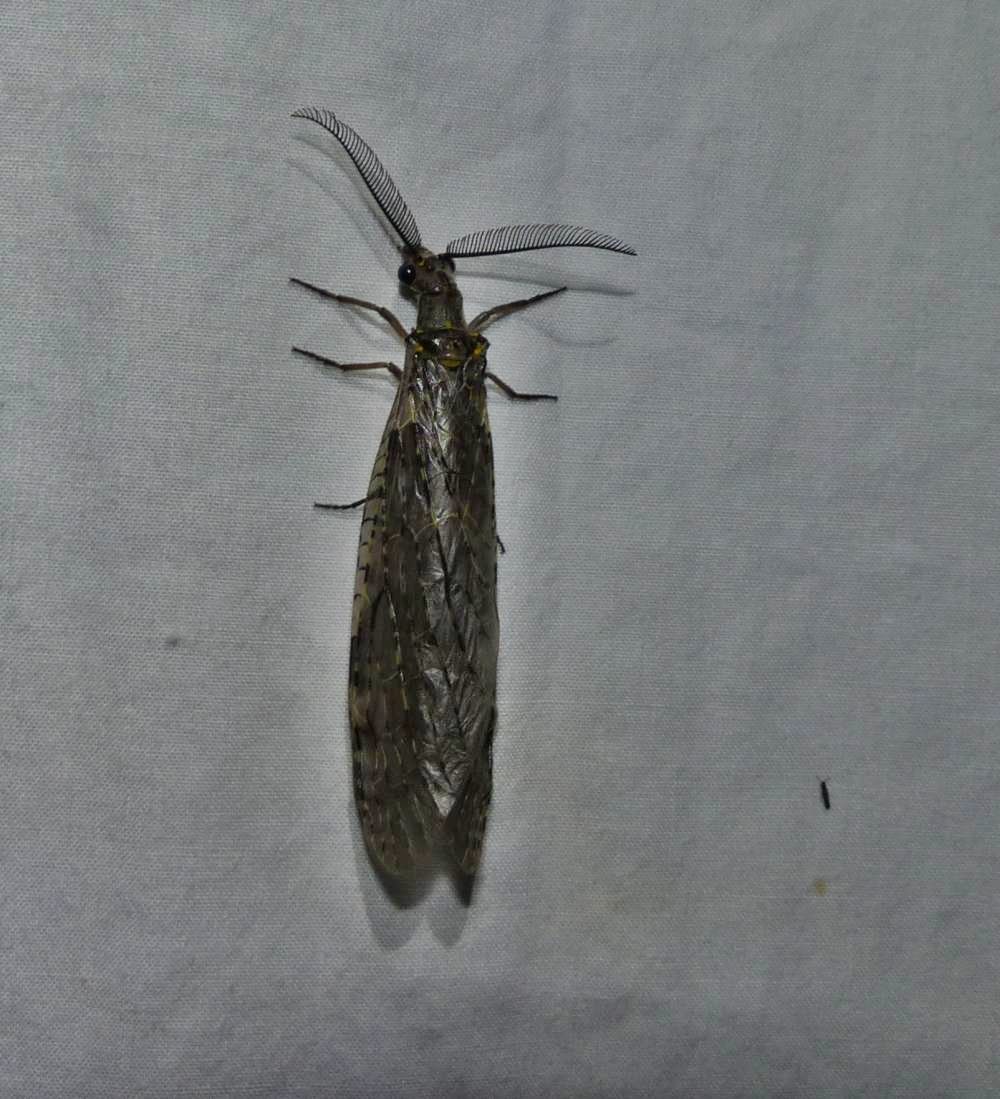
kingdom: Animalia
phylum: Arthropoda
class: Insecta
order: Megaloptera
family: Corydalidae
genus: Chauliodes
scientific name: Chauliodes rastricornis
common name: Spring fishfly
